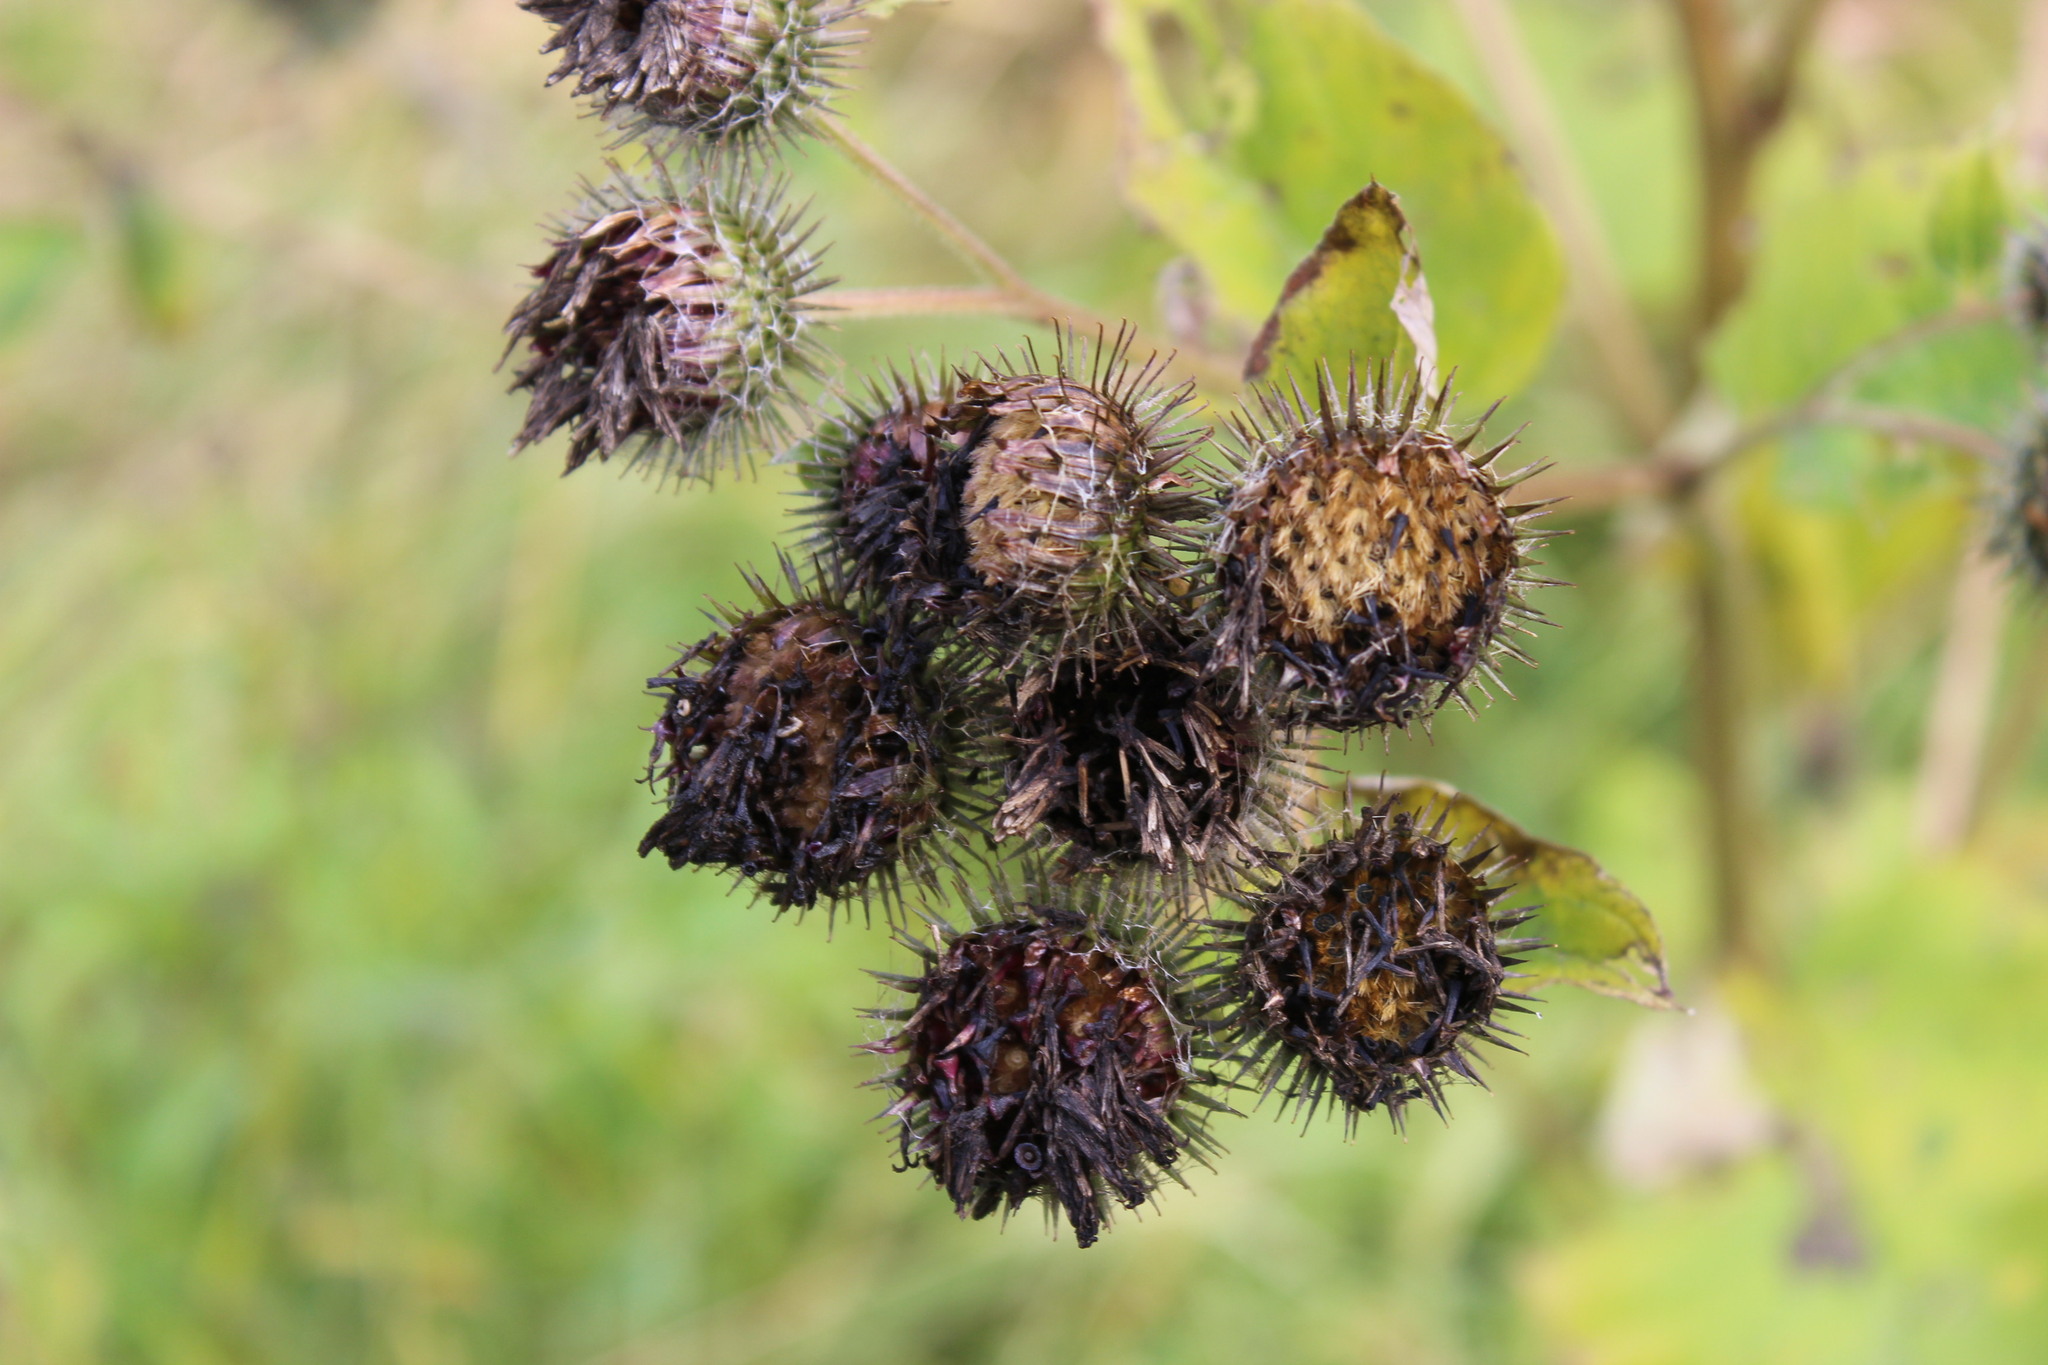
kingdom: Plantae
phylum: Tracheophyta
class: Magnoliopsida
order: Asterales
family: Asteraceae
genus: Arctium
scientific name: Arctium tomentosum
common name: Woolly burdock
